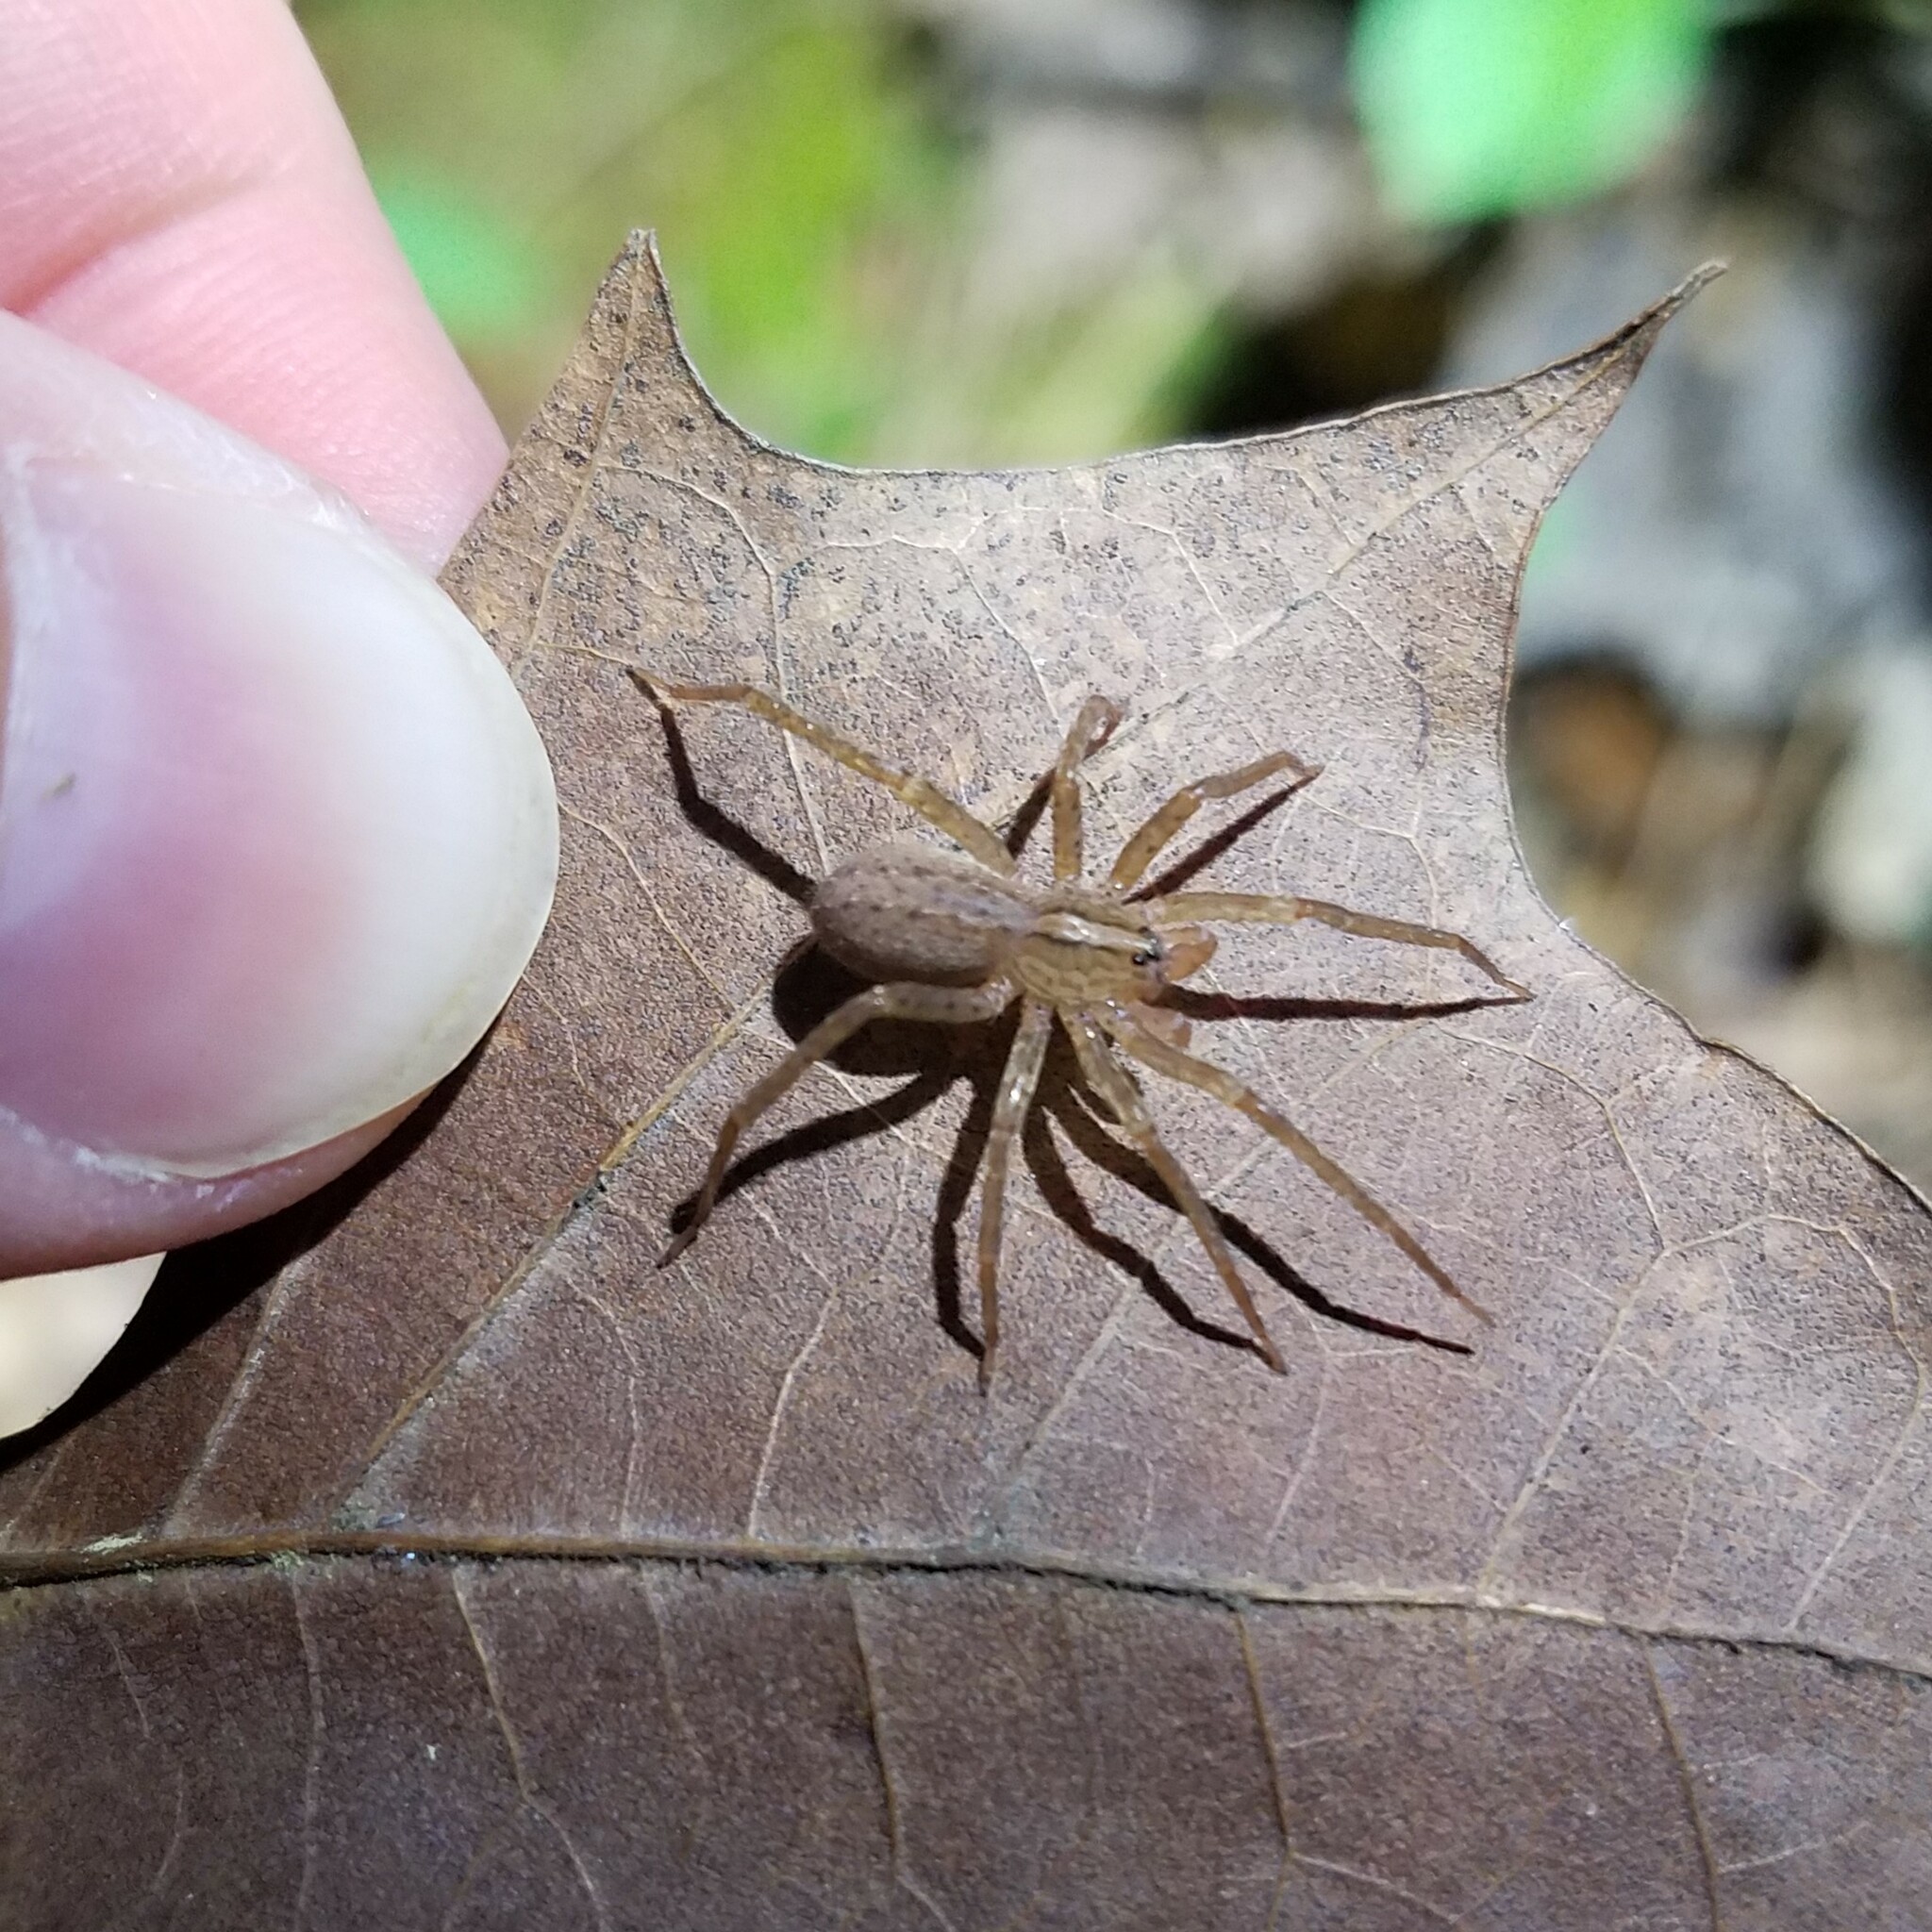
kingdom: Animalia
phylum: Arthropoda
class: Arachnida
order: Araneae
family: Ctenidae
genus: Anahita
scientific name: Anahita punctulata
